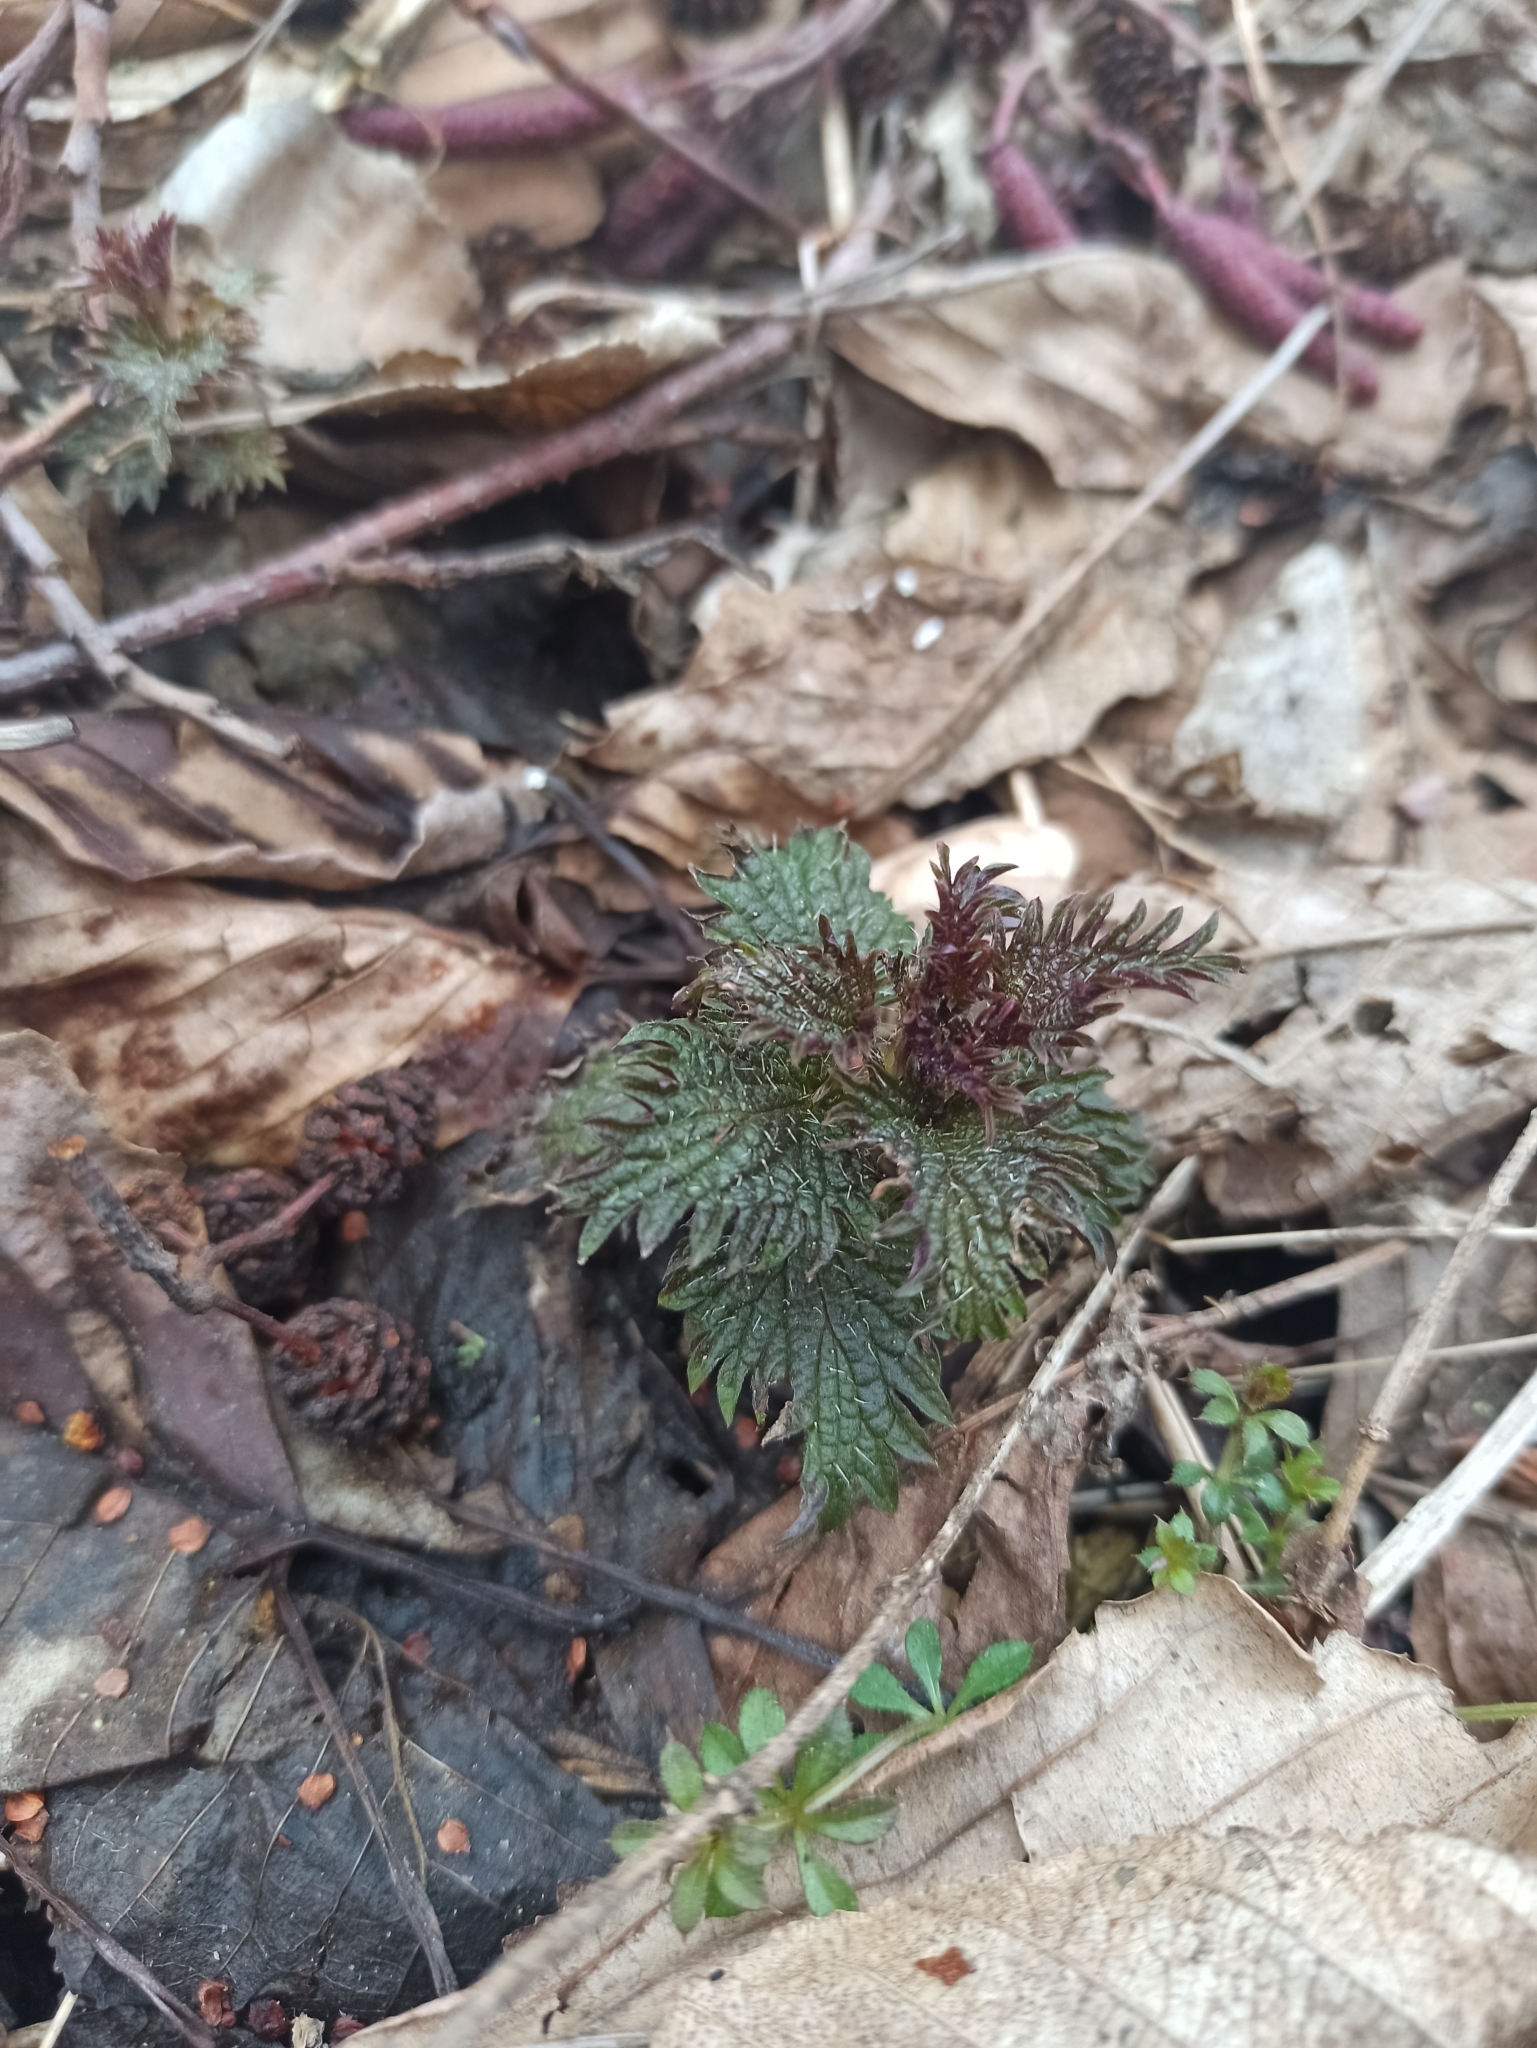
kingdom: Plantae
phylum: Tracheophyta
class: Magnoliopsida
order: Rosales
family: Urticaceae
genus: Urtica
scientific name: Urtica dioica
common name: Common nettle
